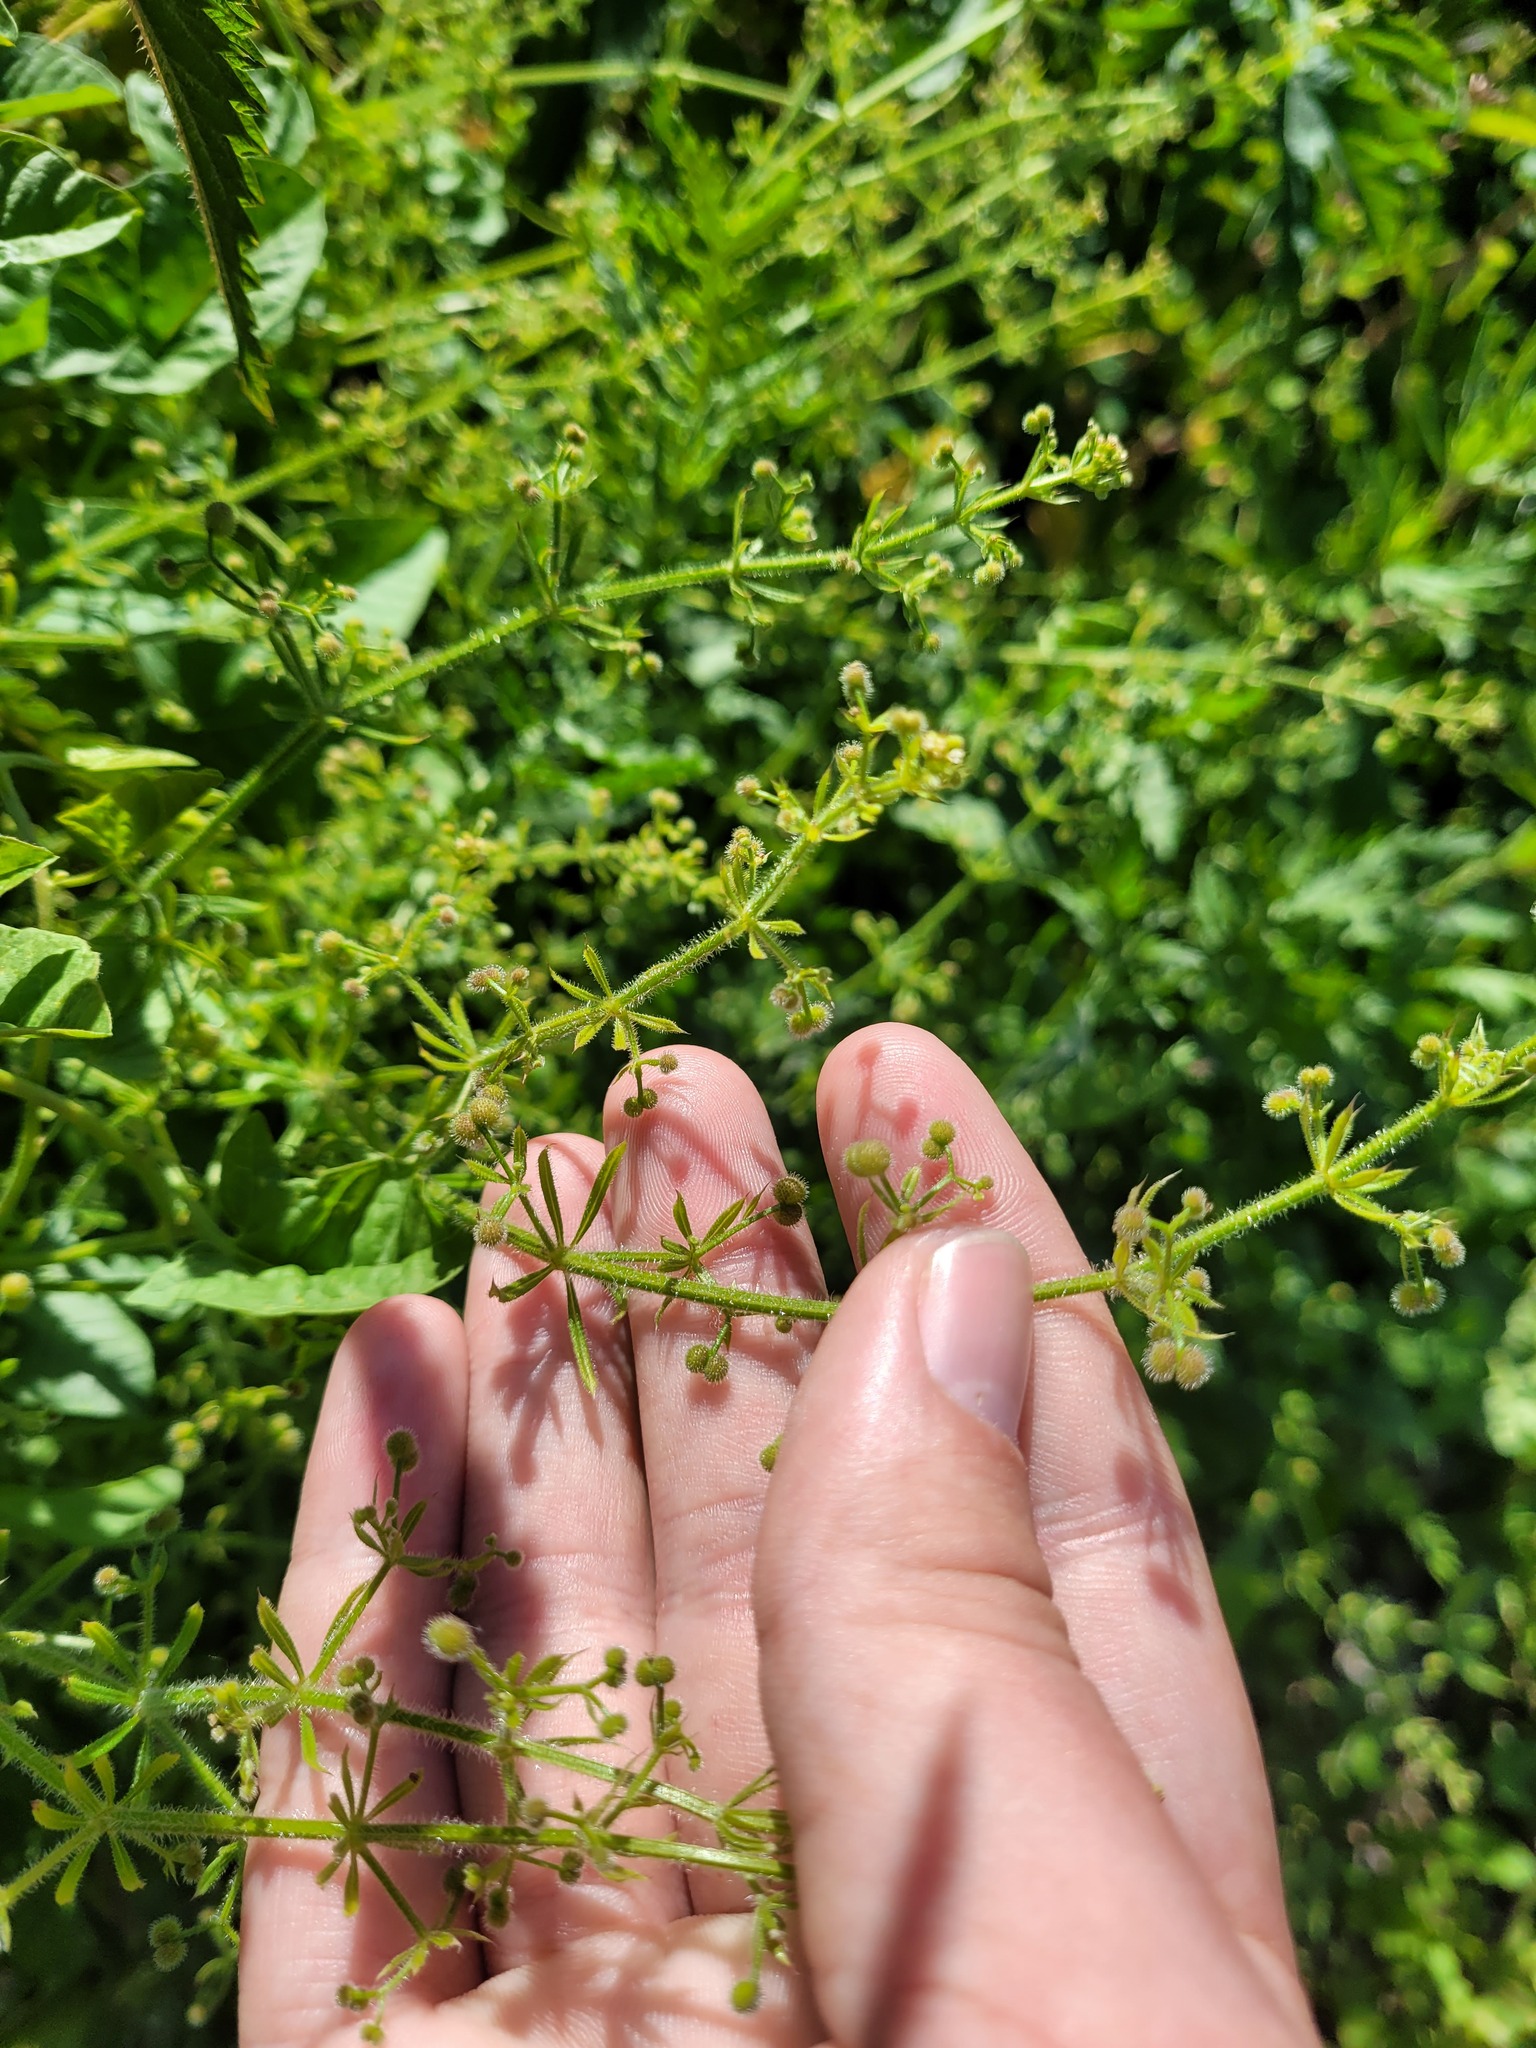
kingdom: Plantae
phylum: Tracheophyta
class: Magnoliopsida
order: Gentianales
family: Rubiaceae
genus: Galium
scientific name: Galium aparine
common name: Cleavers
